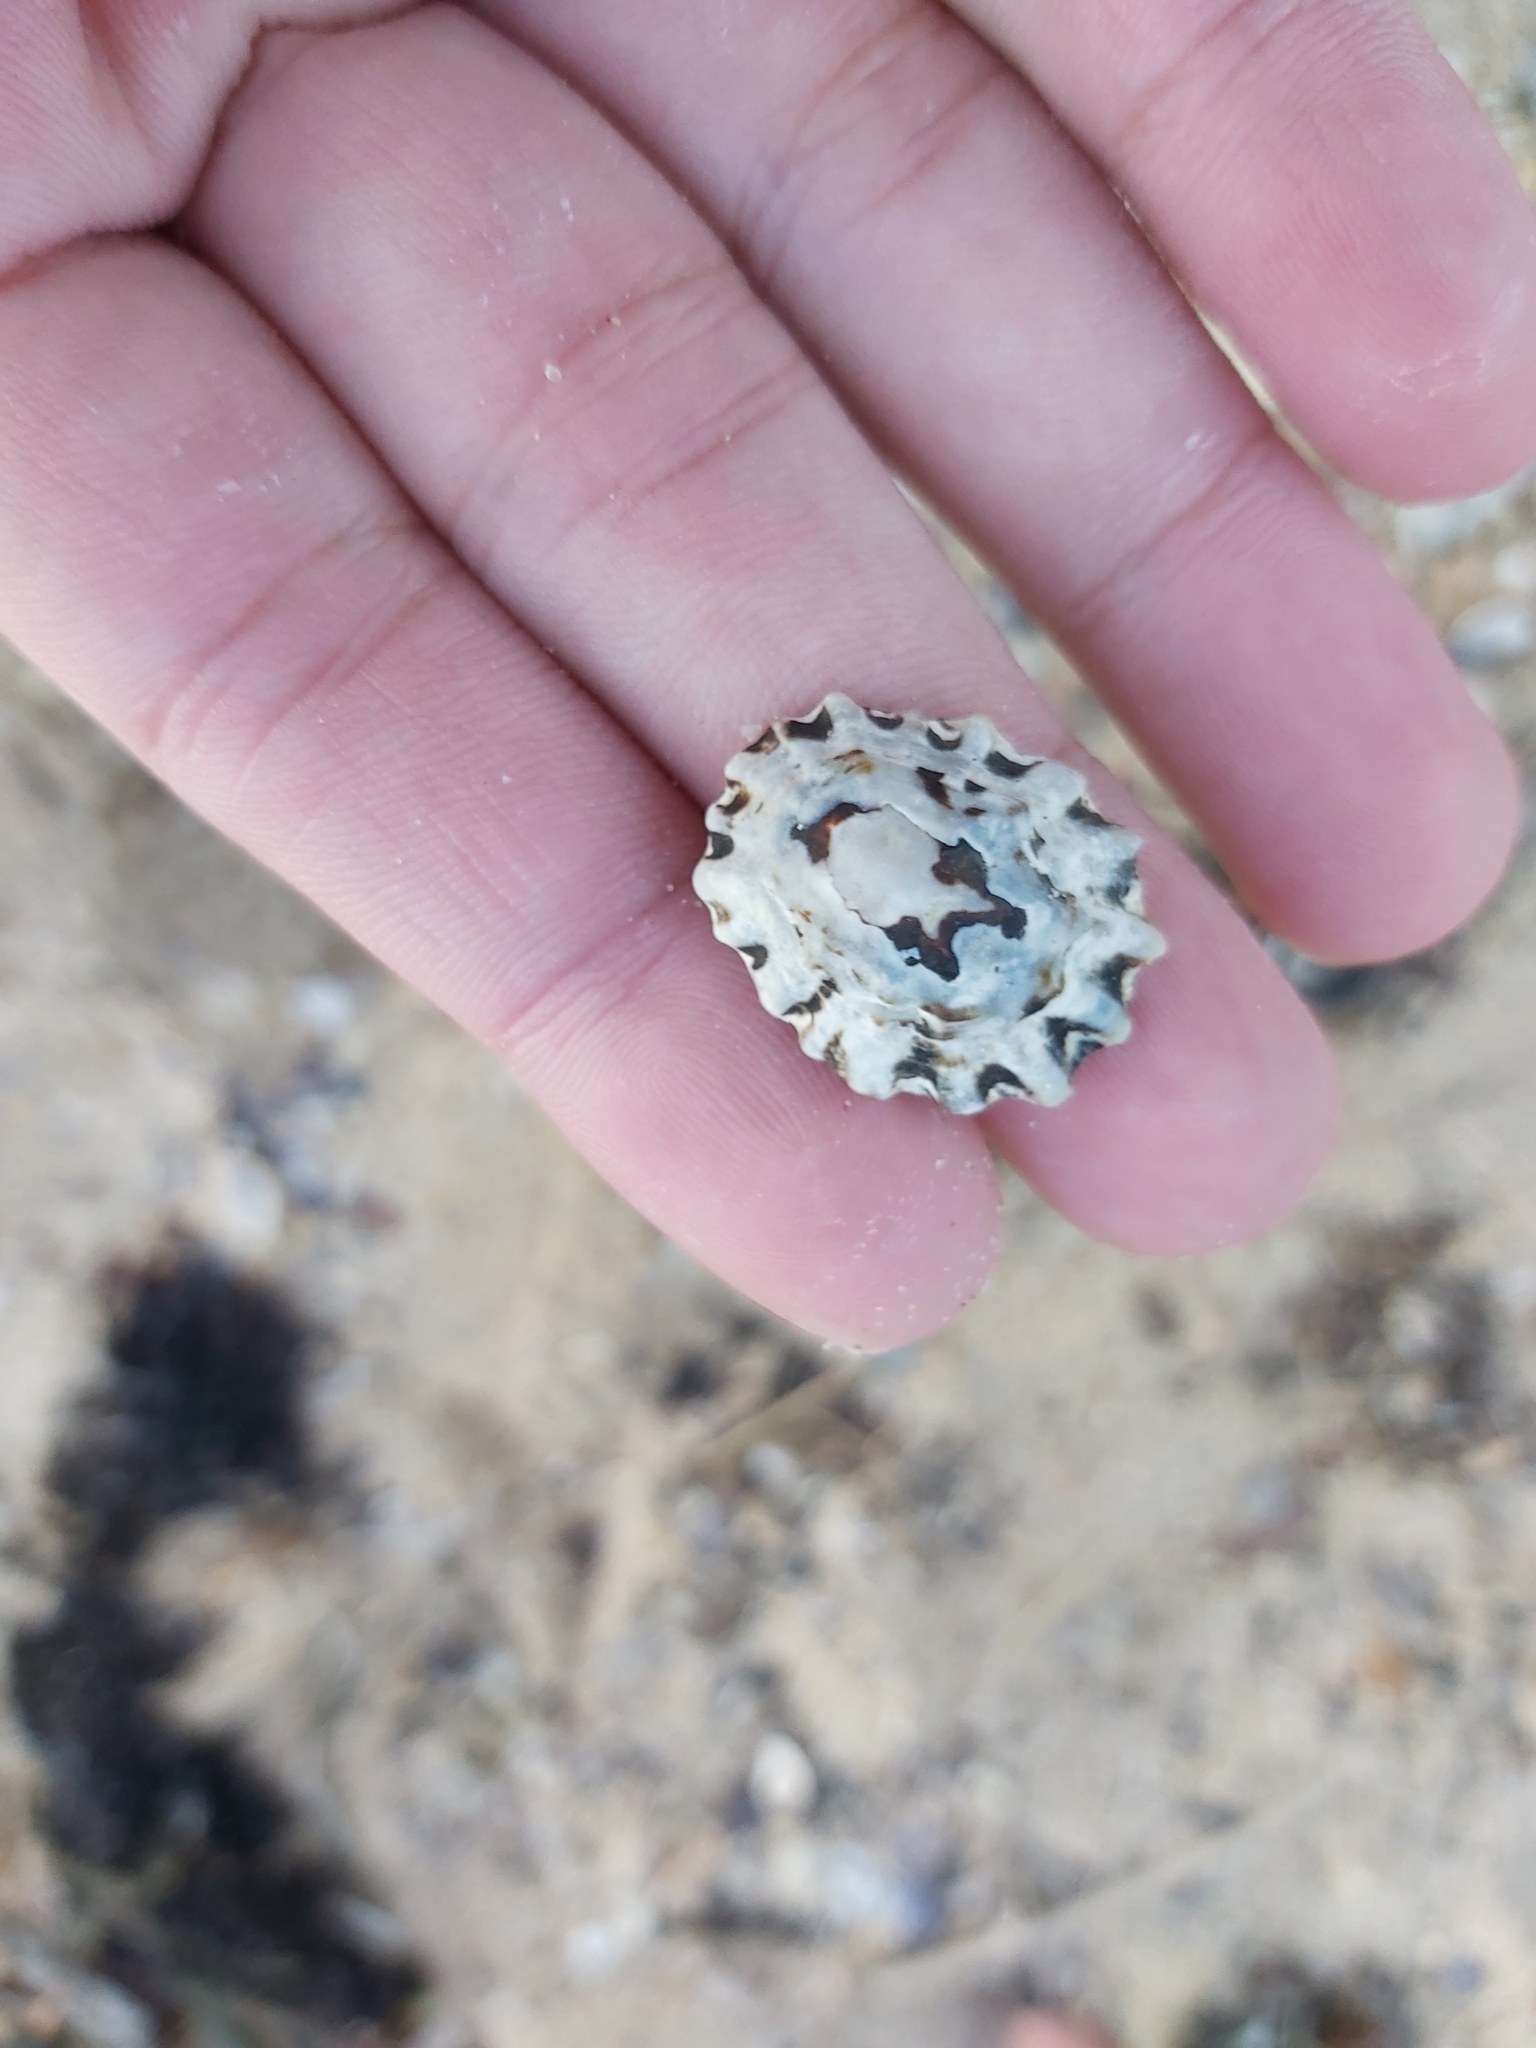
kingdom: Animalia
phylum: Mollusca
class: Gastropoda
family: Lottiidae
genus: Patelloida
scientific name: Patelloida alticostata
